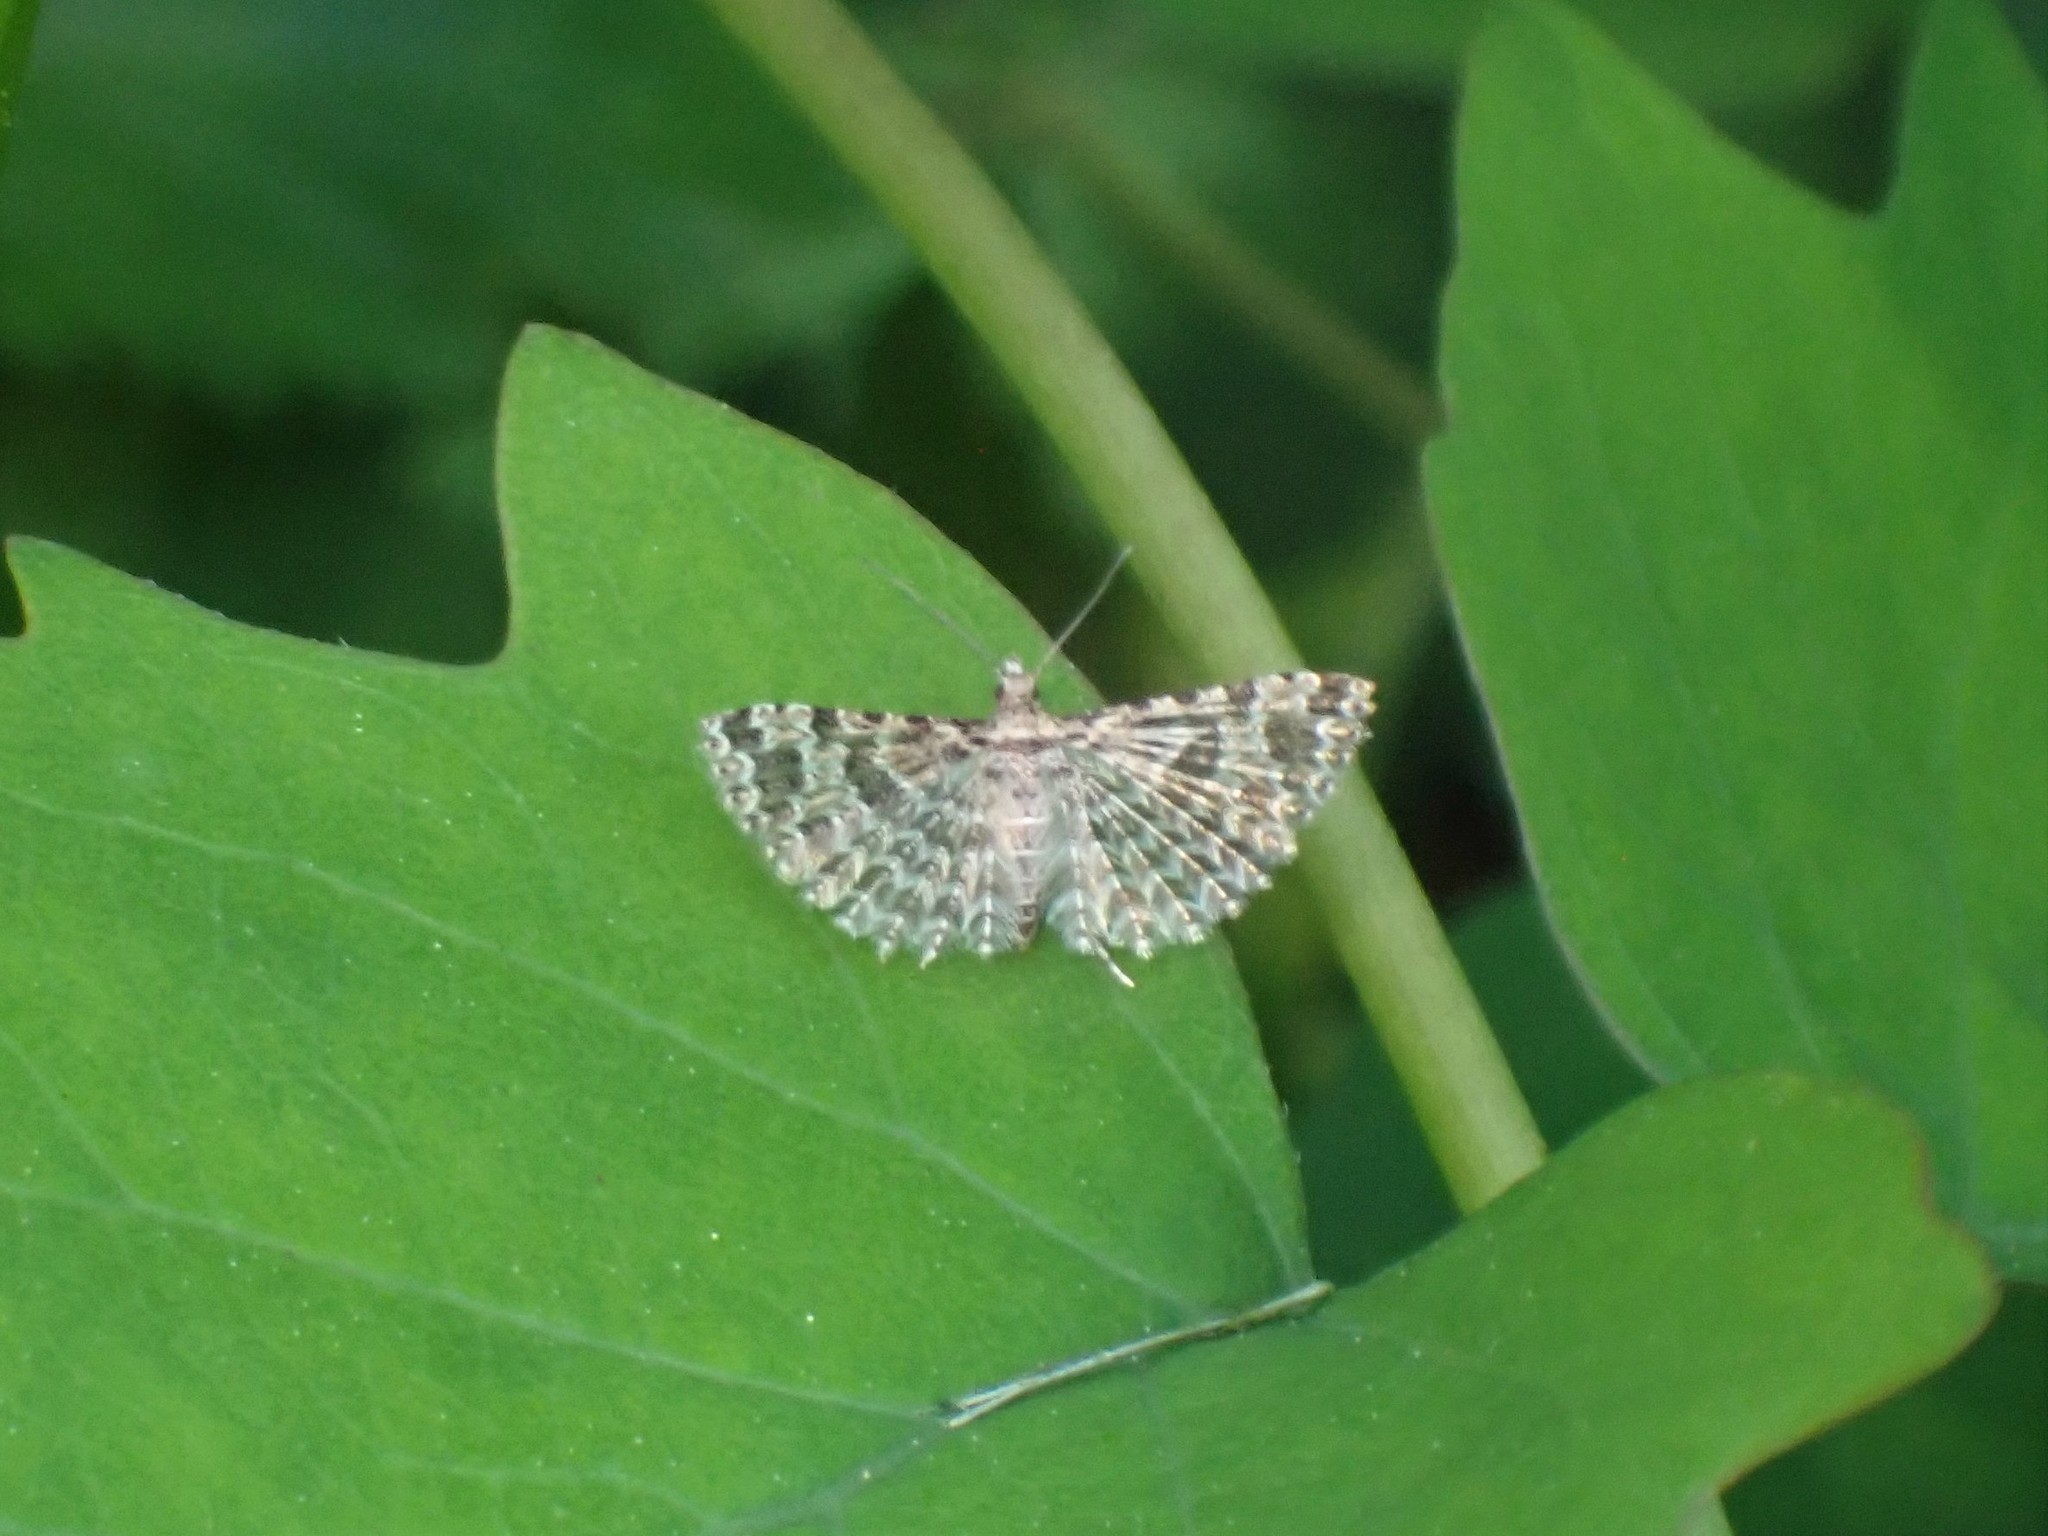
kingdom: Animalia
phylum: Arthropoda
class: Insecta
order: Lepidoptera
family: Alucitidae
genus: Alucita
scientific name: Alucita montana
